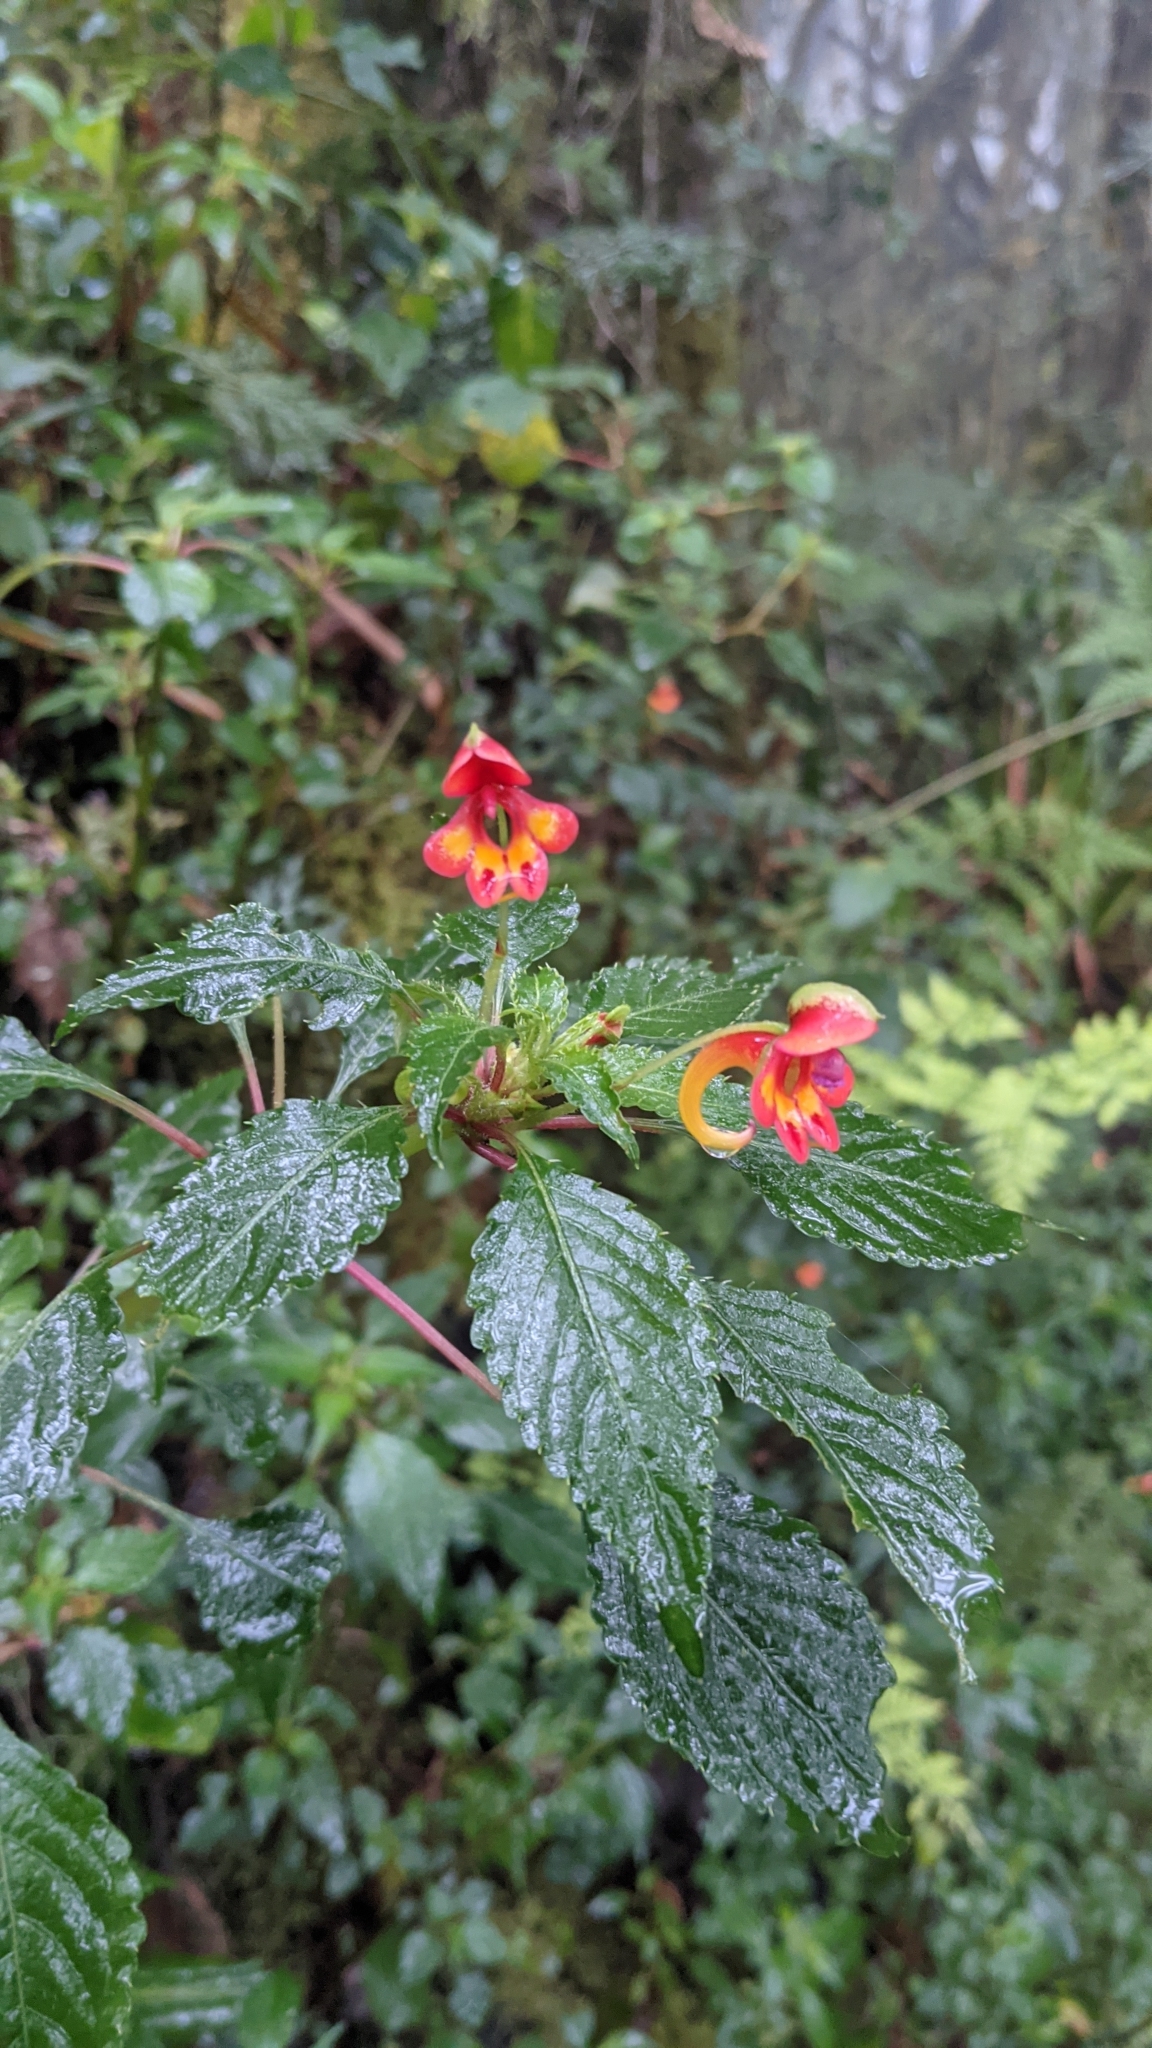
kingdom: Plantae
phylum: Tracheophyta
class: Magnoliopsida
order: Ericales
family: Balsaminaceae
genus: Impatiens
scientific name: Impatiens kilimanjari
